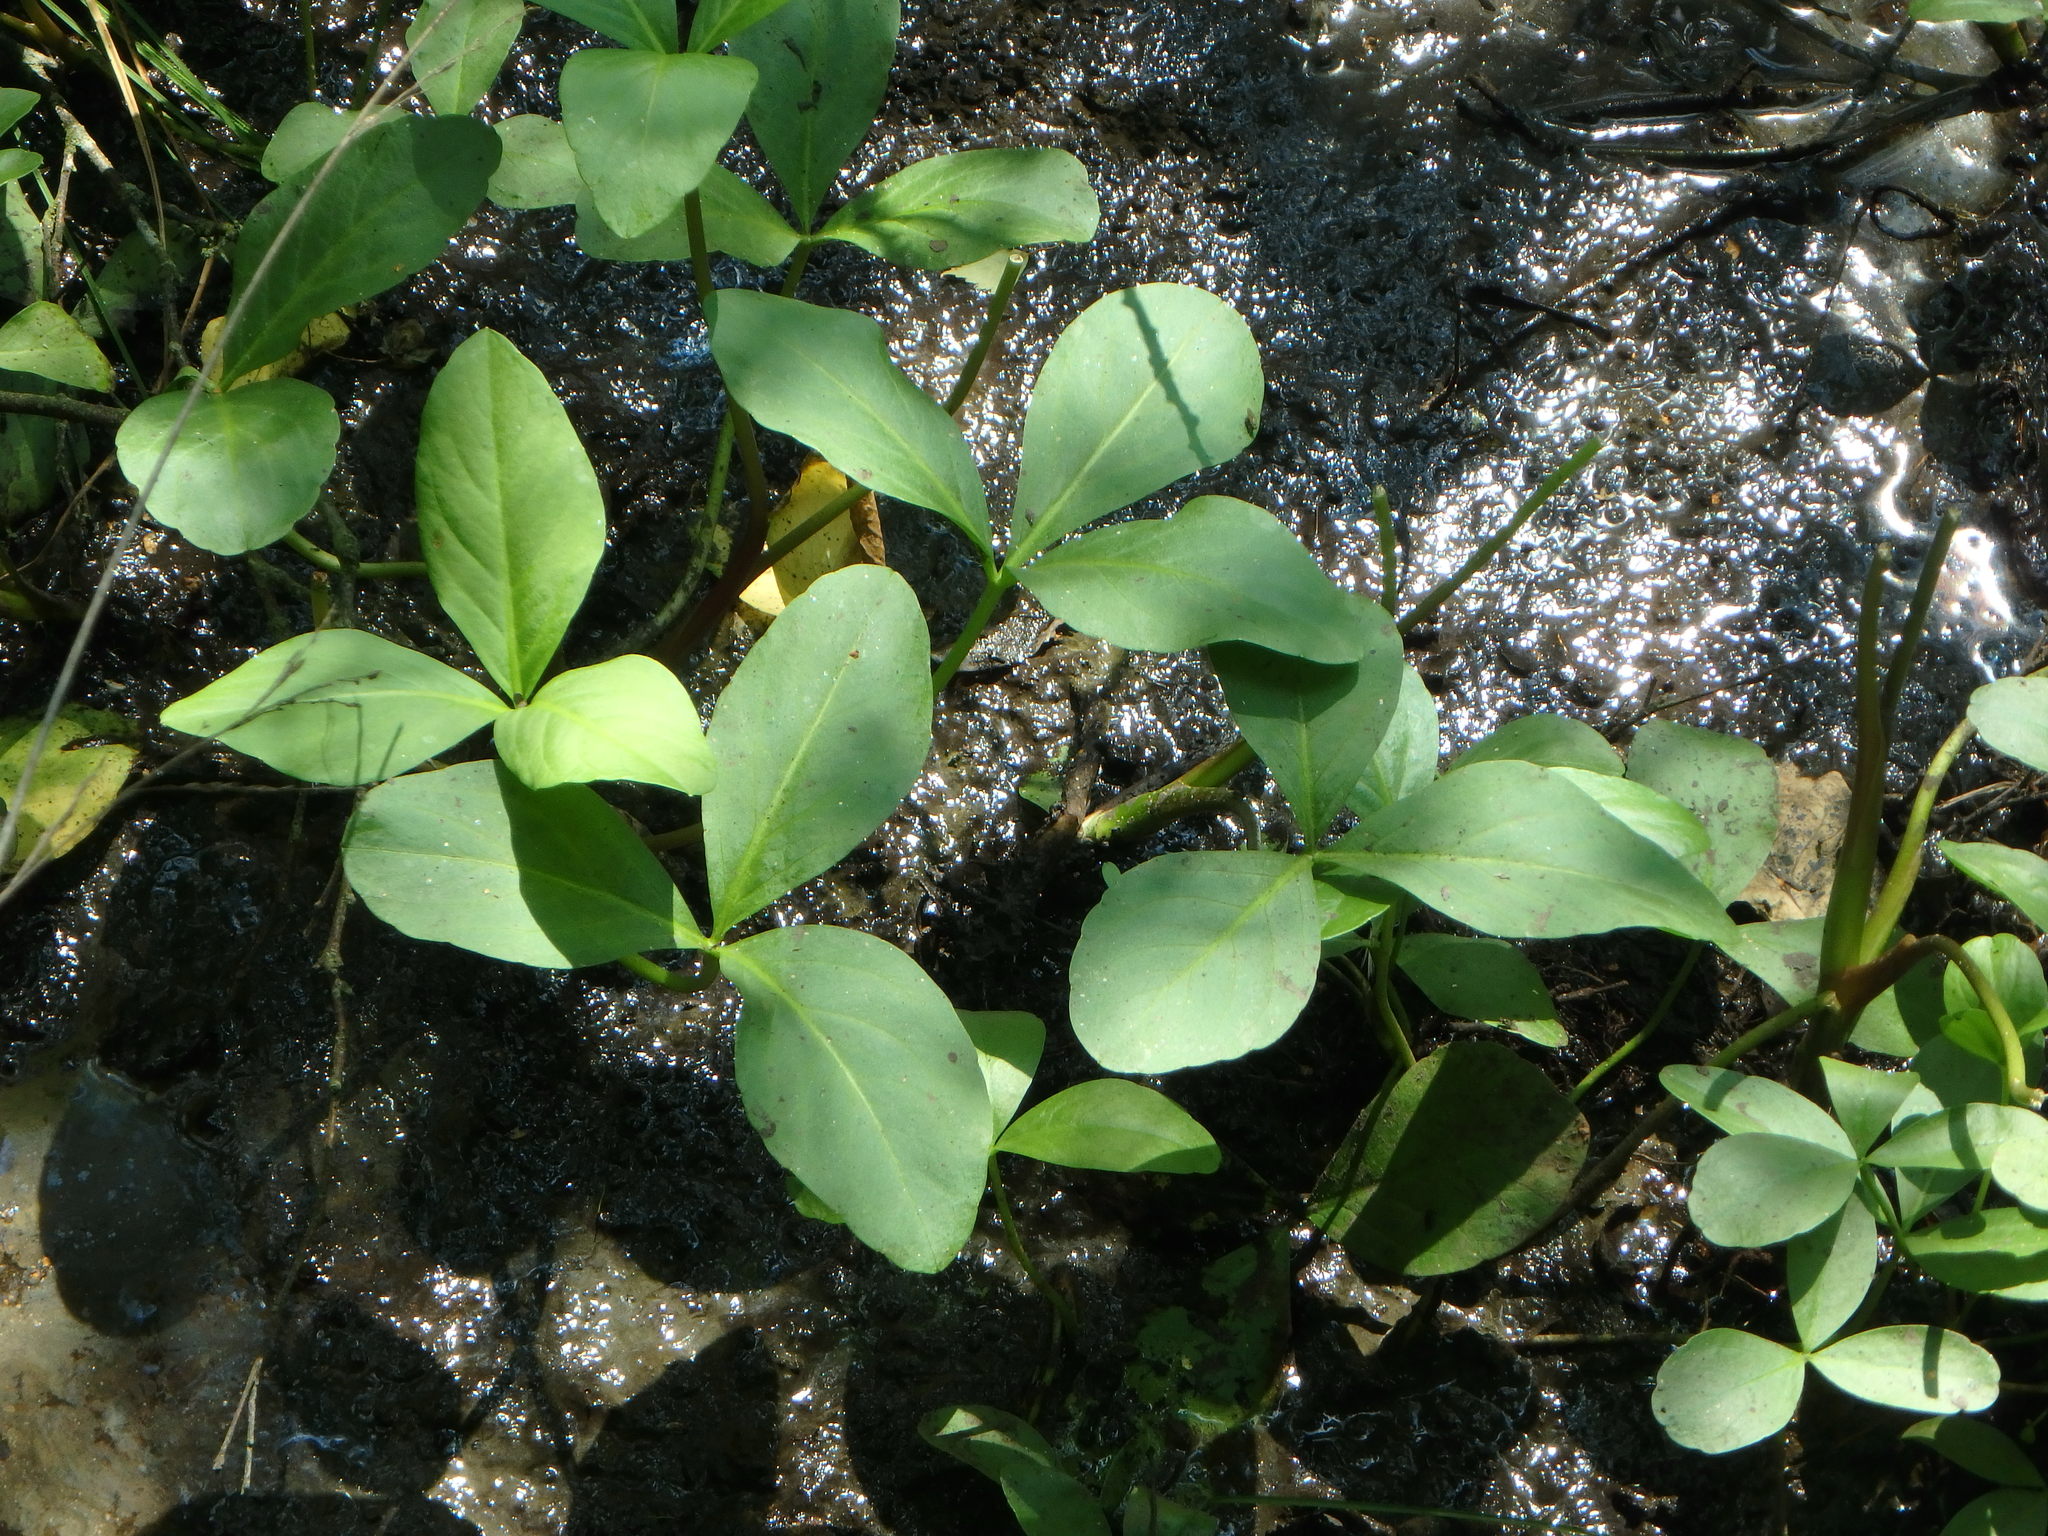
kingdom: Plantae
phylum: Tracheophyta
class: Magnoliopsida
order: Asterales
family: Menyanthaceae
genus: Menyanthes
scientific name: Menyanthes trifoliata
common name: Bogbean
